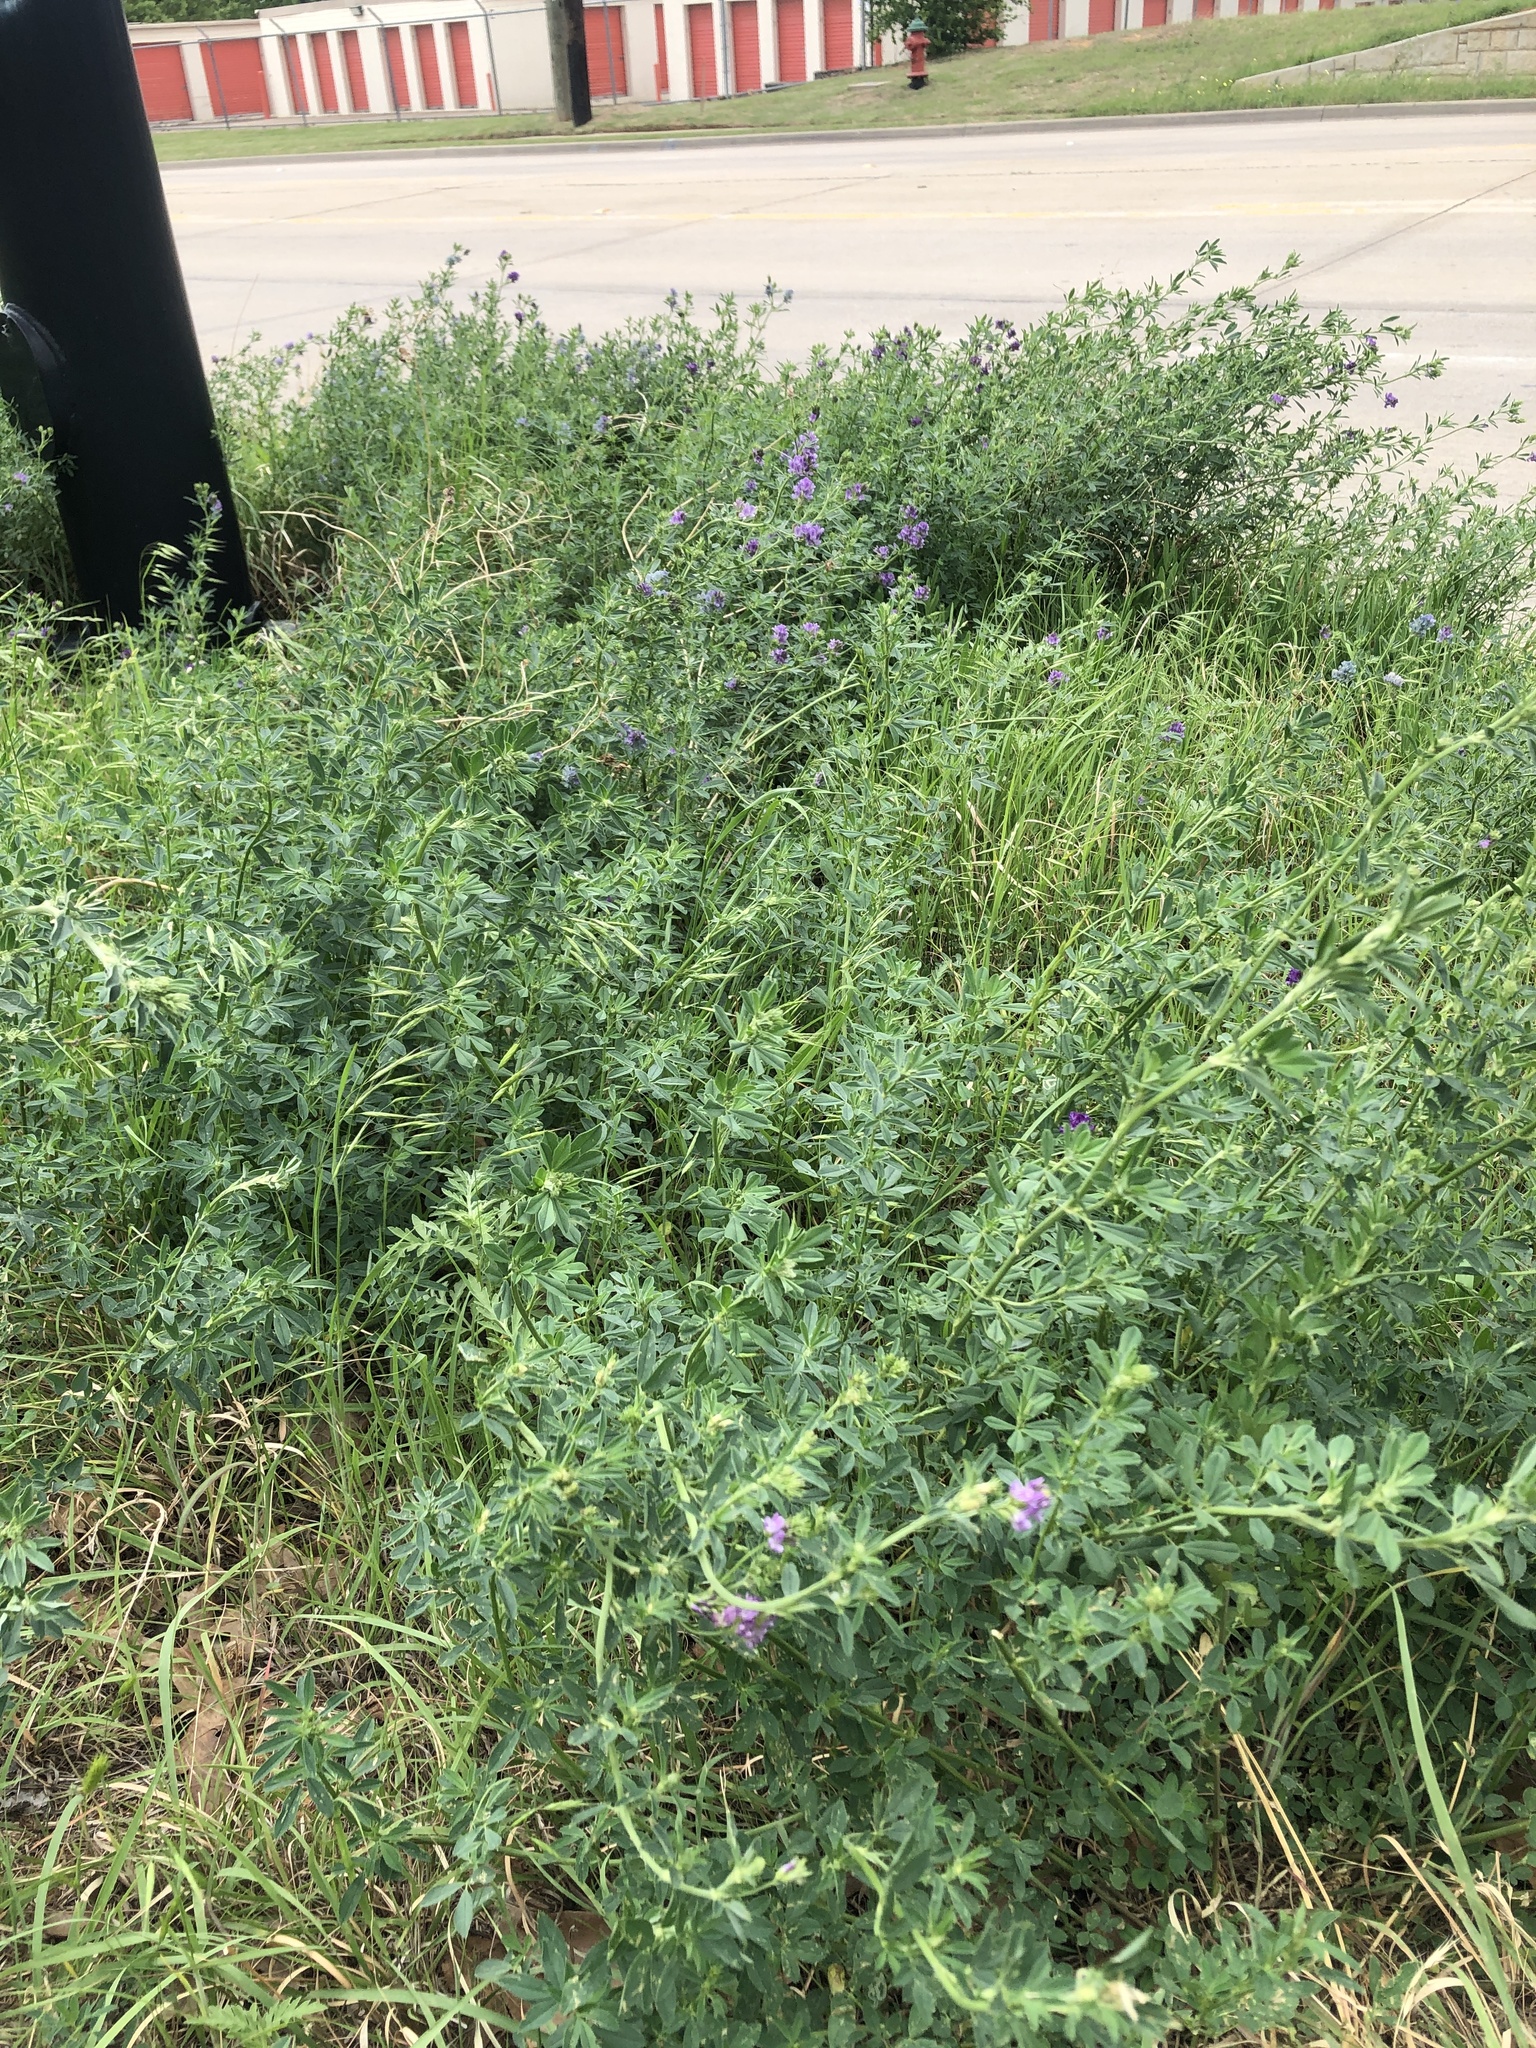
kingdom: Plantae
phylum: Tracheophyta
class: Magnoliopsida
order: Fabales
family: Fabaceae
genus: Medicago
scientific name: Medicago sativa
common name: Alfalfa
